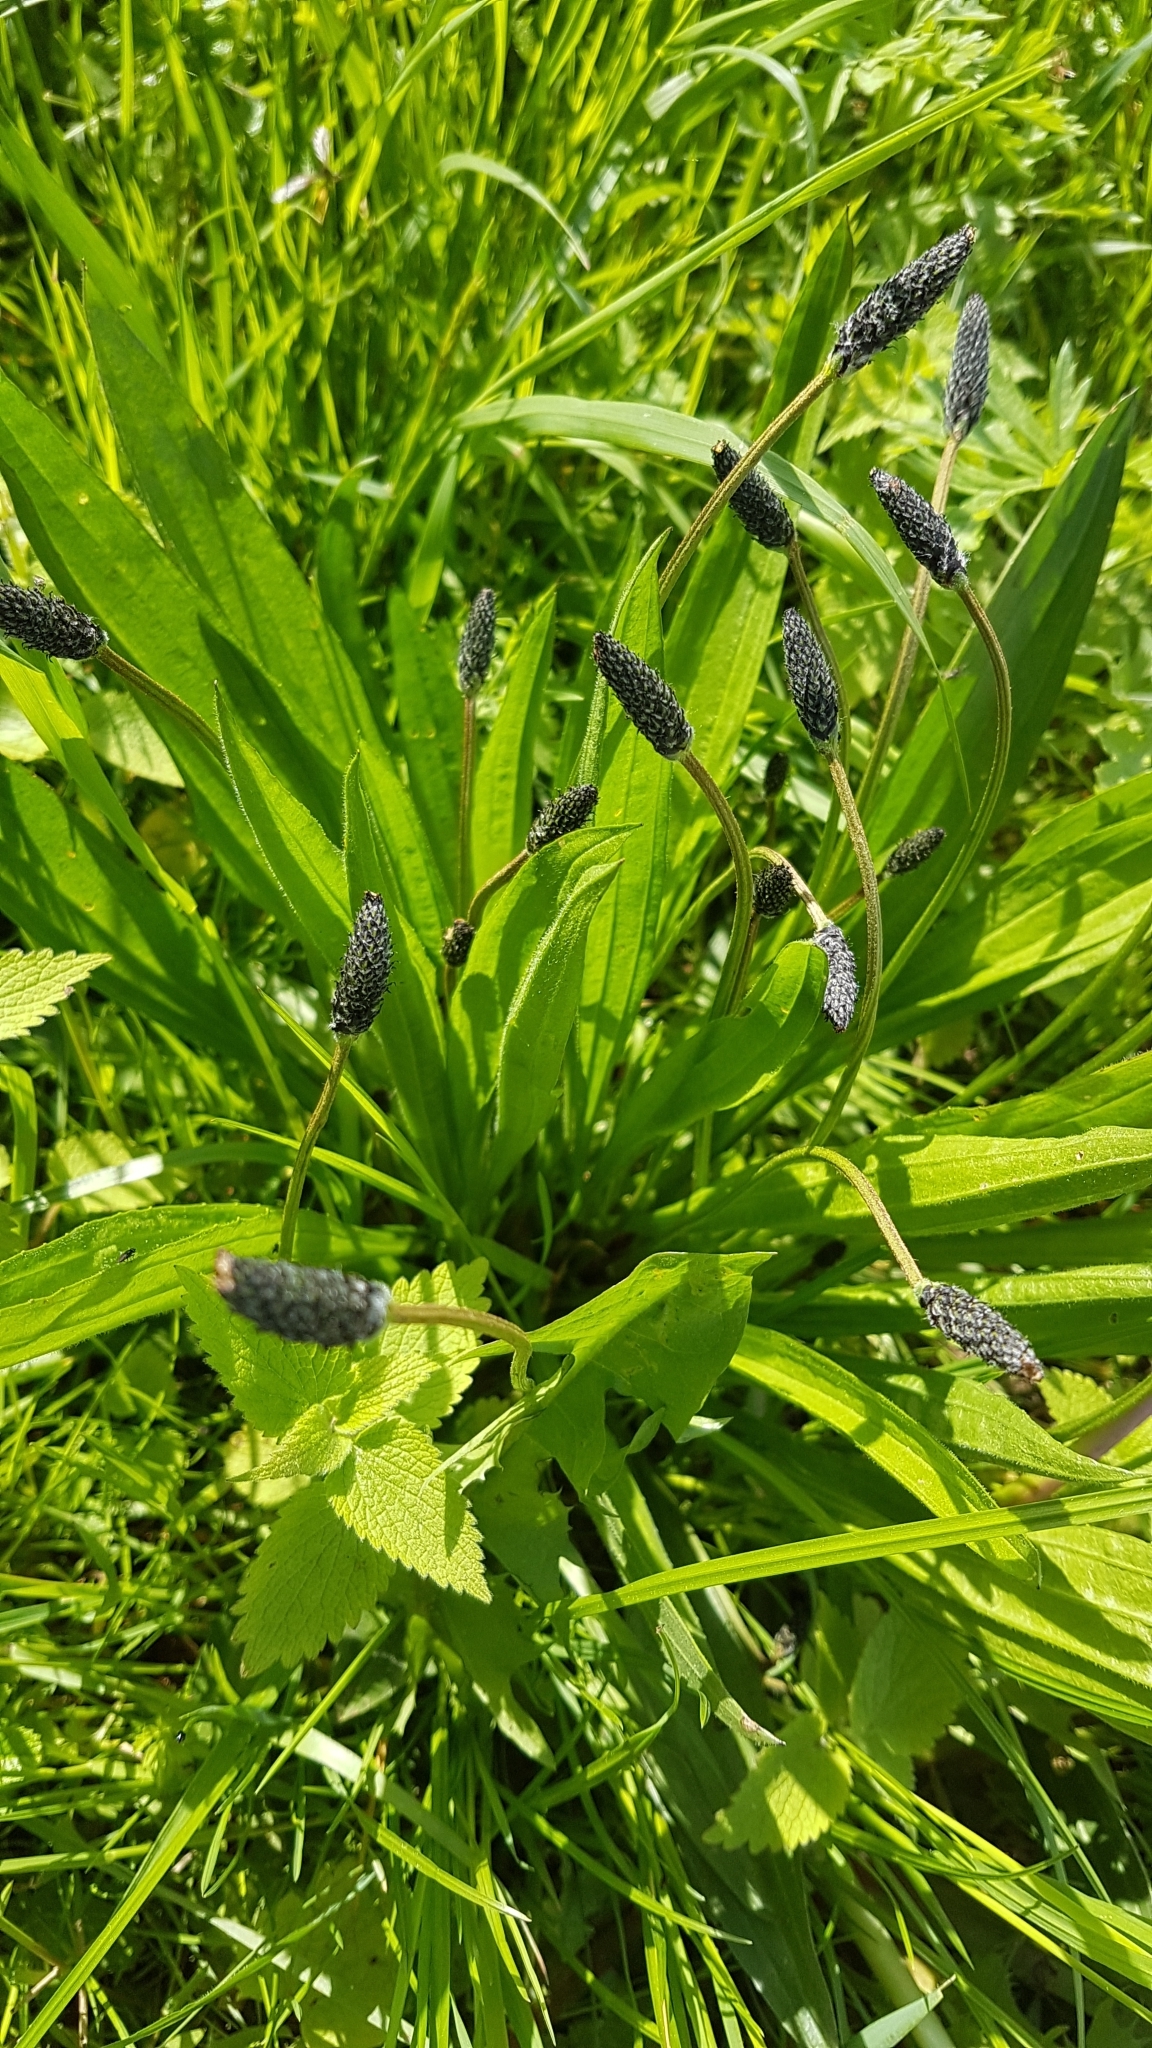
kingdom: Plantae
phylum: Tracheophyta
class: Magnoliopsida
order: Lamiales
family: Plantaginaceae
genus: Plantago
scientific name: Plantago lanceolata
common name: Ribwort plantain
